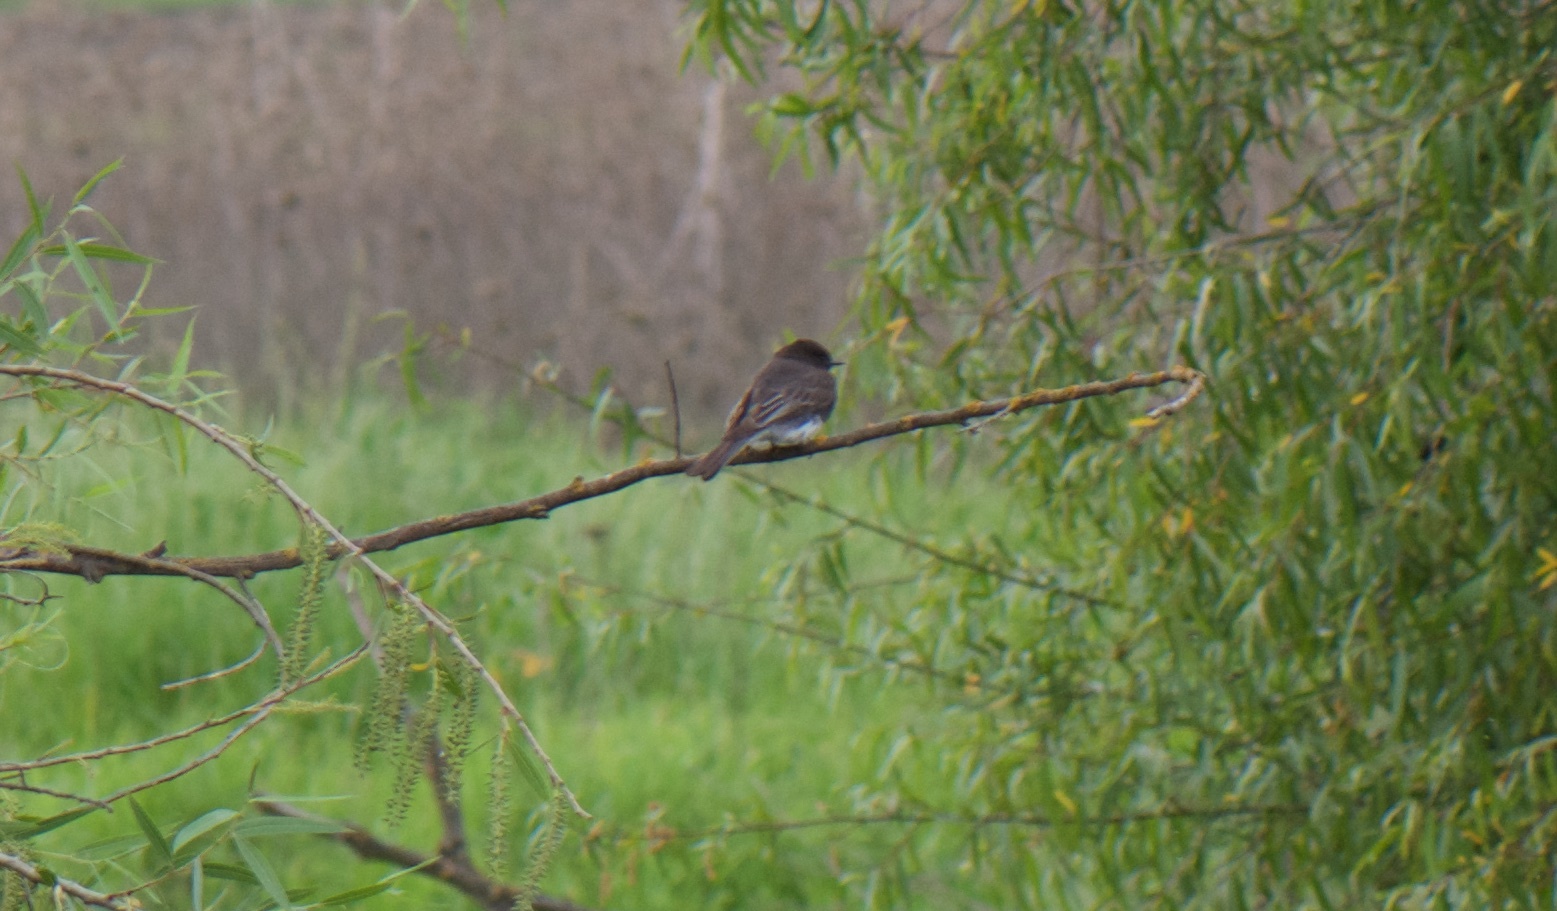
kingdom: Animalia
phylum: Chordata
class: Aves
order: Passeriformes
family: Tyrannidae
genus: Sayornis
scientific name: Sayornis nigricans
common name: Black phoebe
